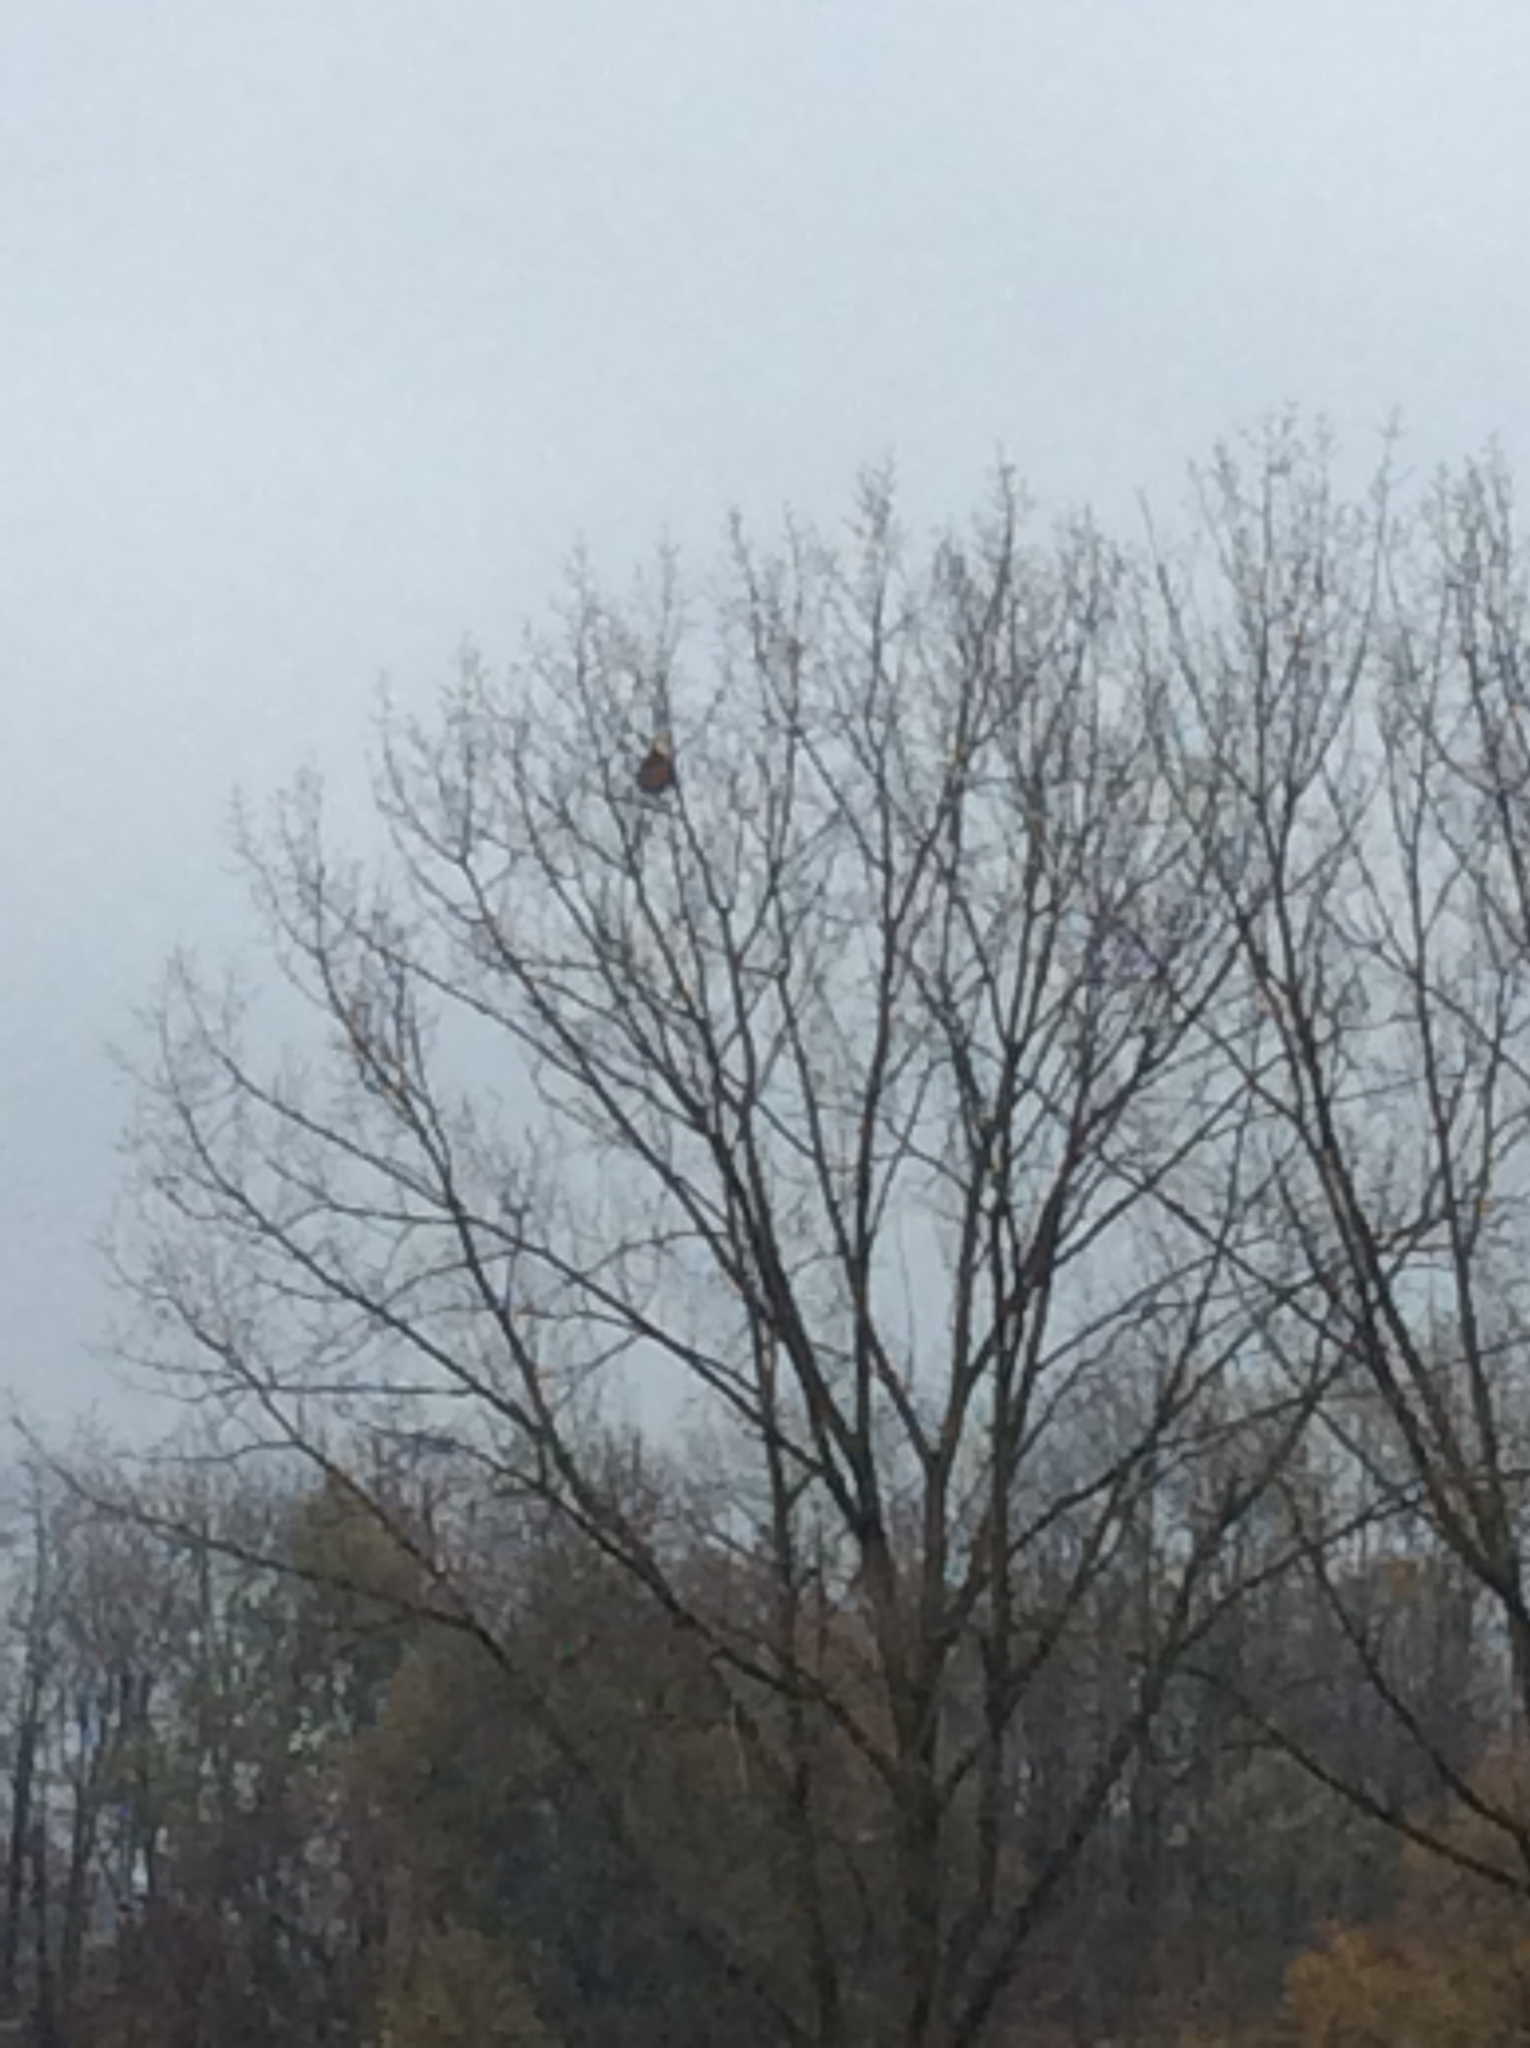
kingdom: Animalia
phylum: Arthropoda
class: Insecta
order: Hymenoptera
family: Vespidae
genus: Vespa
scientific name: Vespa velutina
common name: Asian hornet
